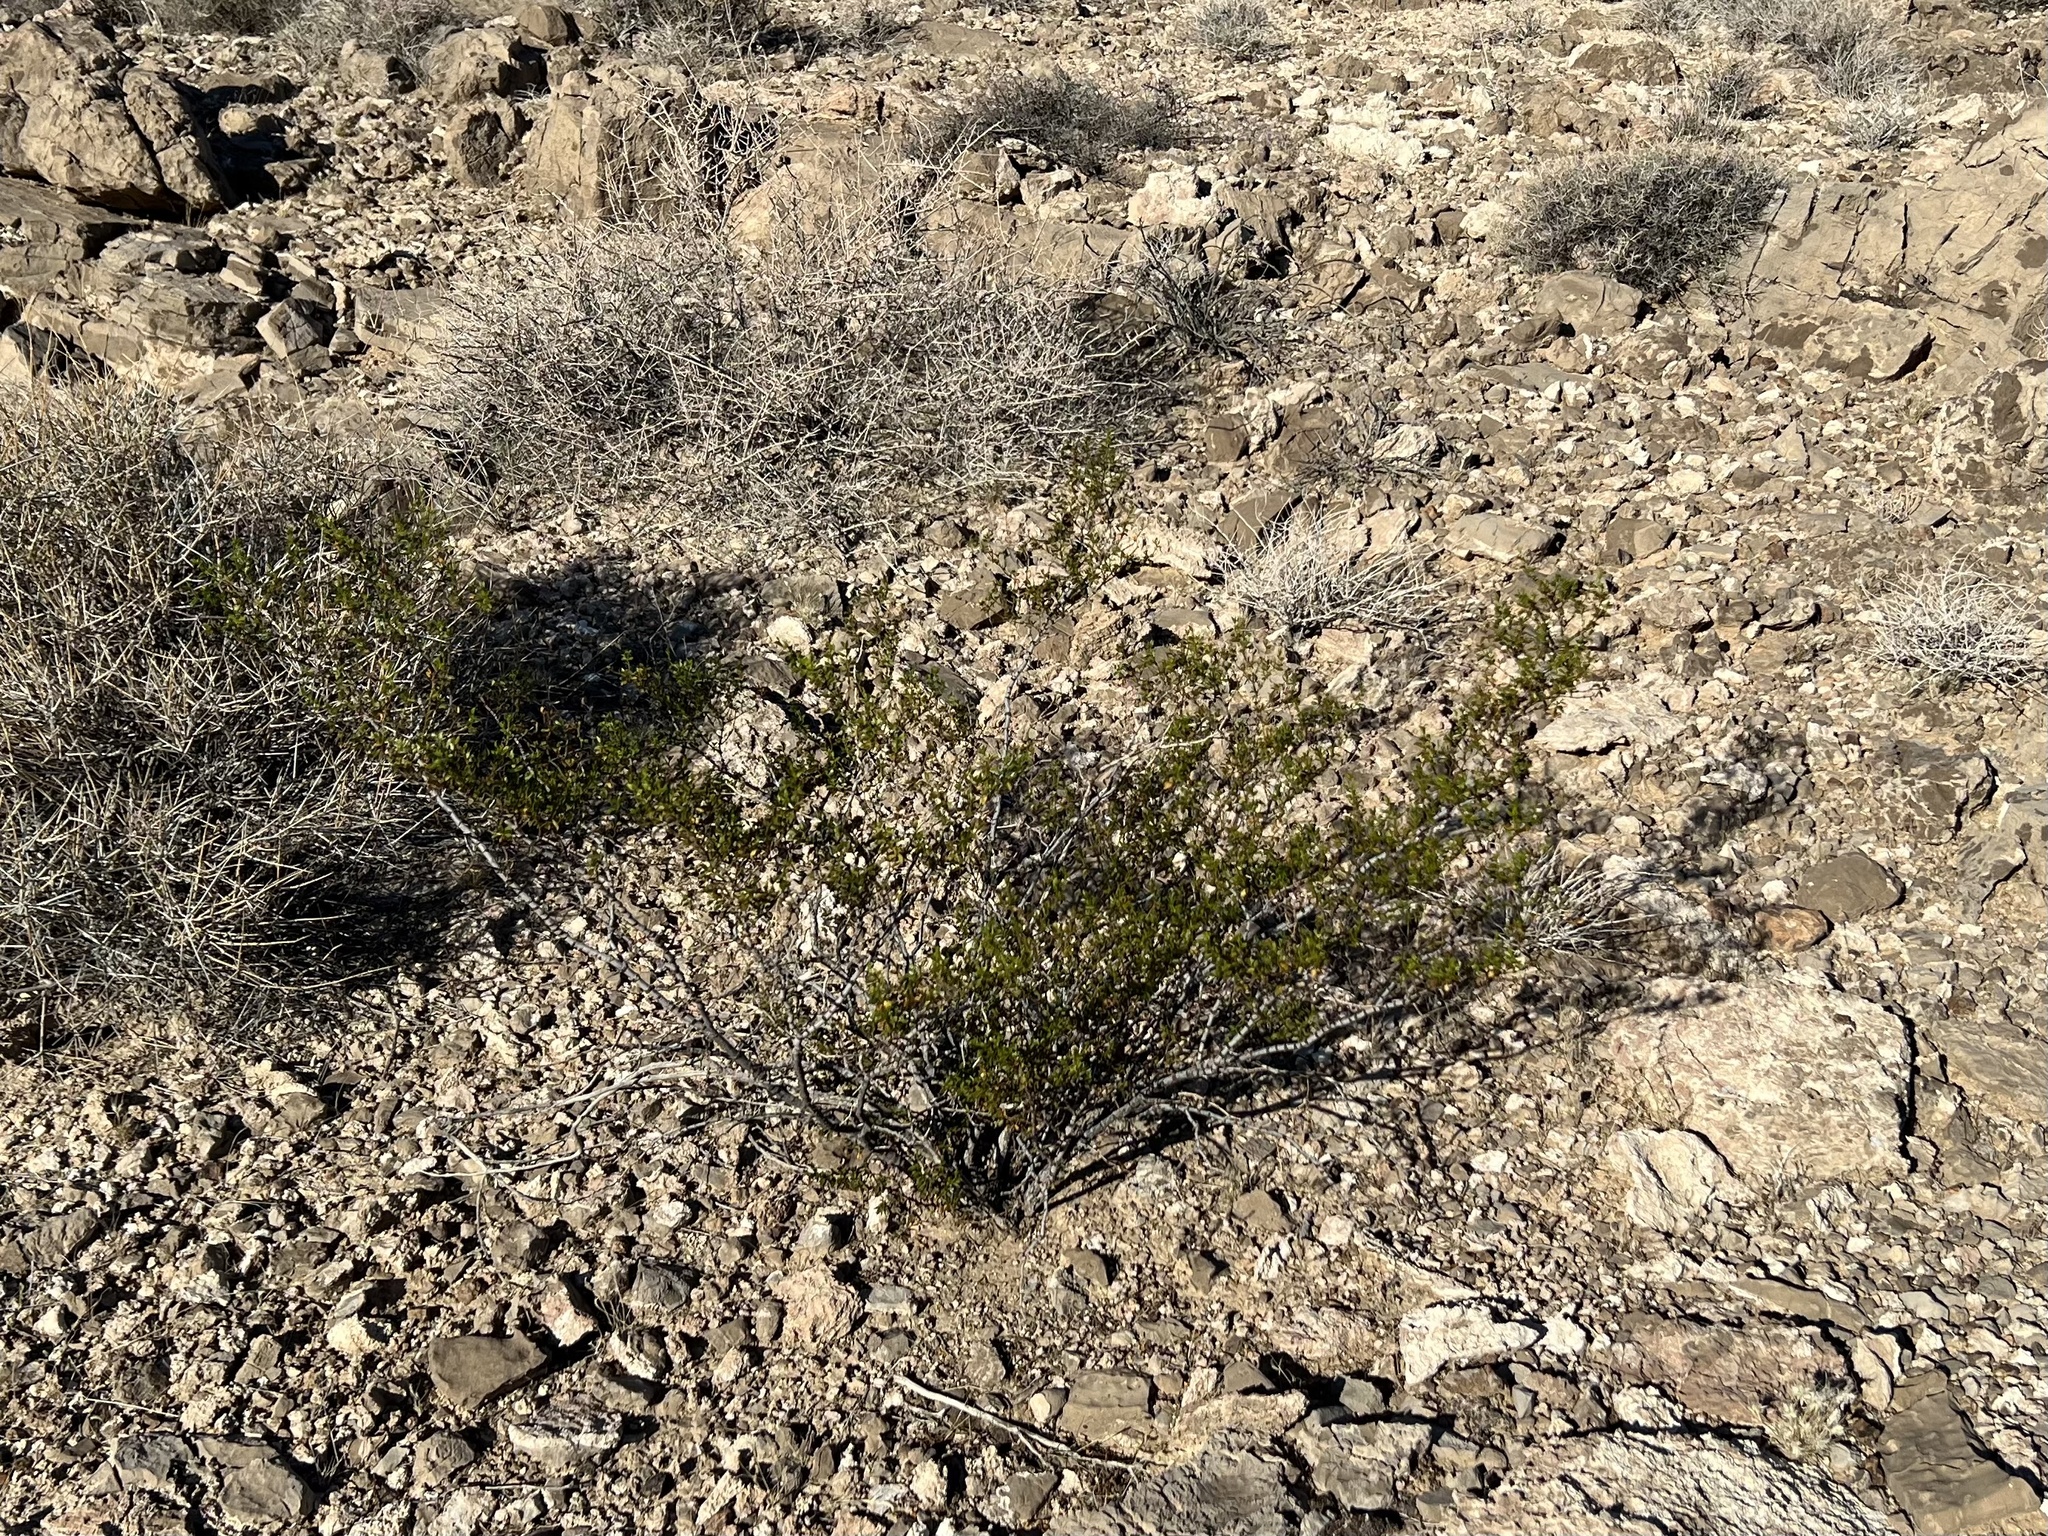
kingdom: Plantae
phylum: Tracheophyta
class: Magnoliopsida
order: Zygophyllales
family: Zygophyllaceae
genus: Larrea
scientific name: Larrea tridentata
